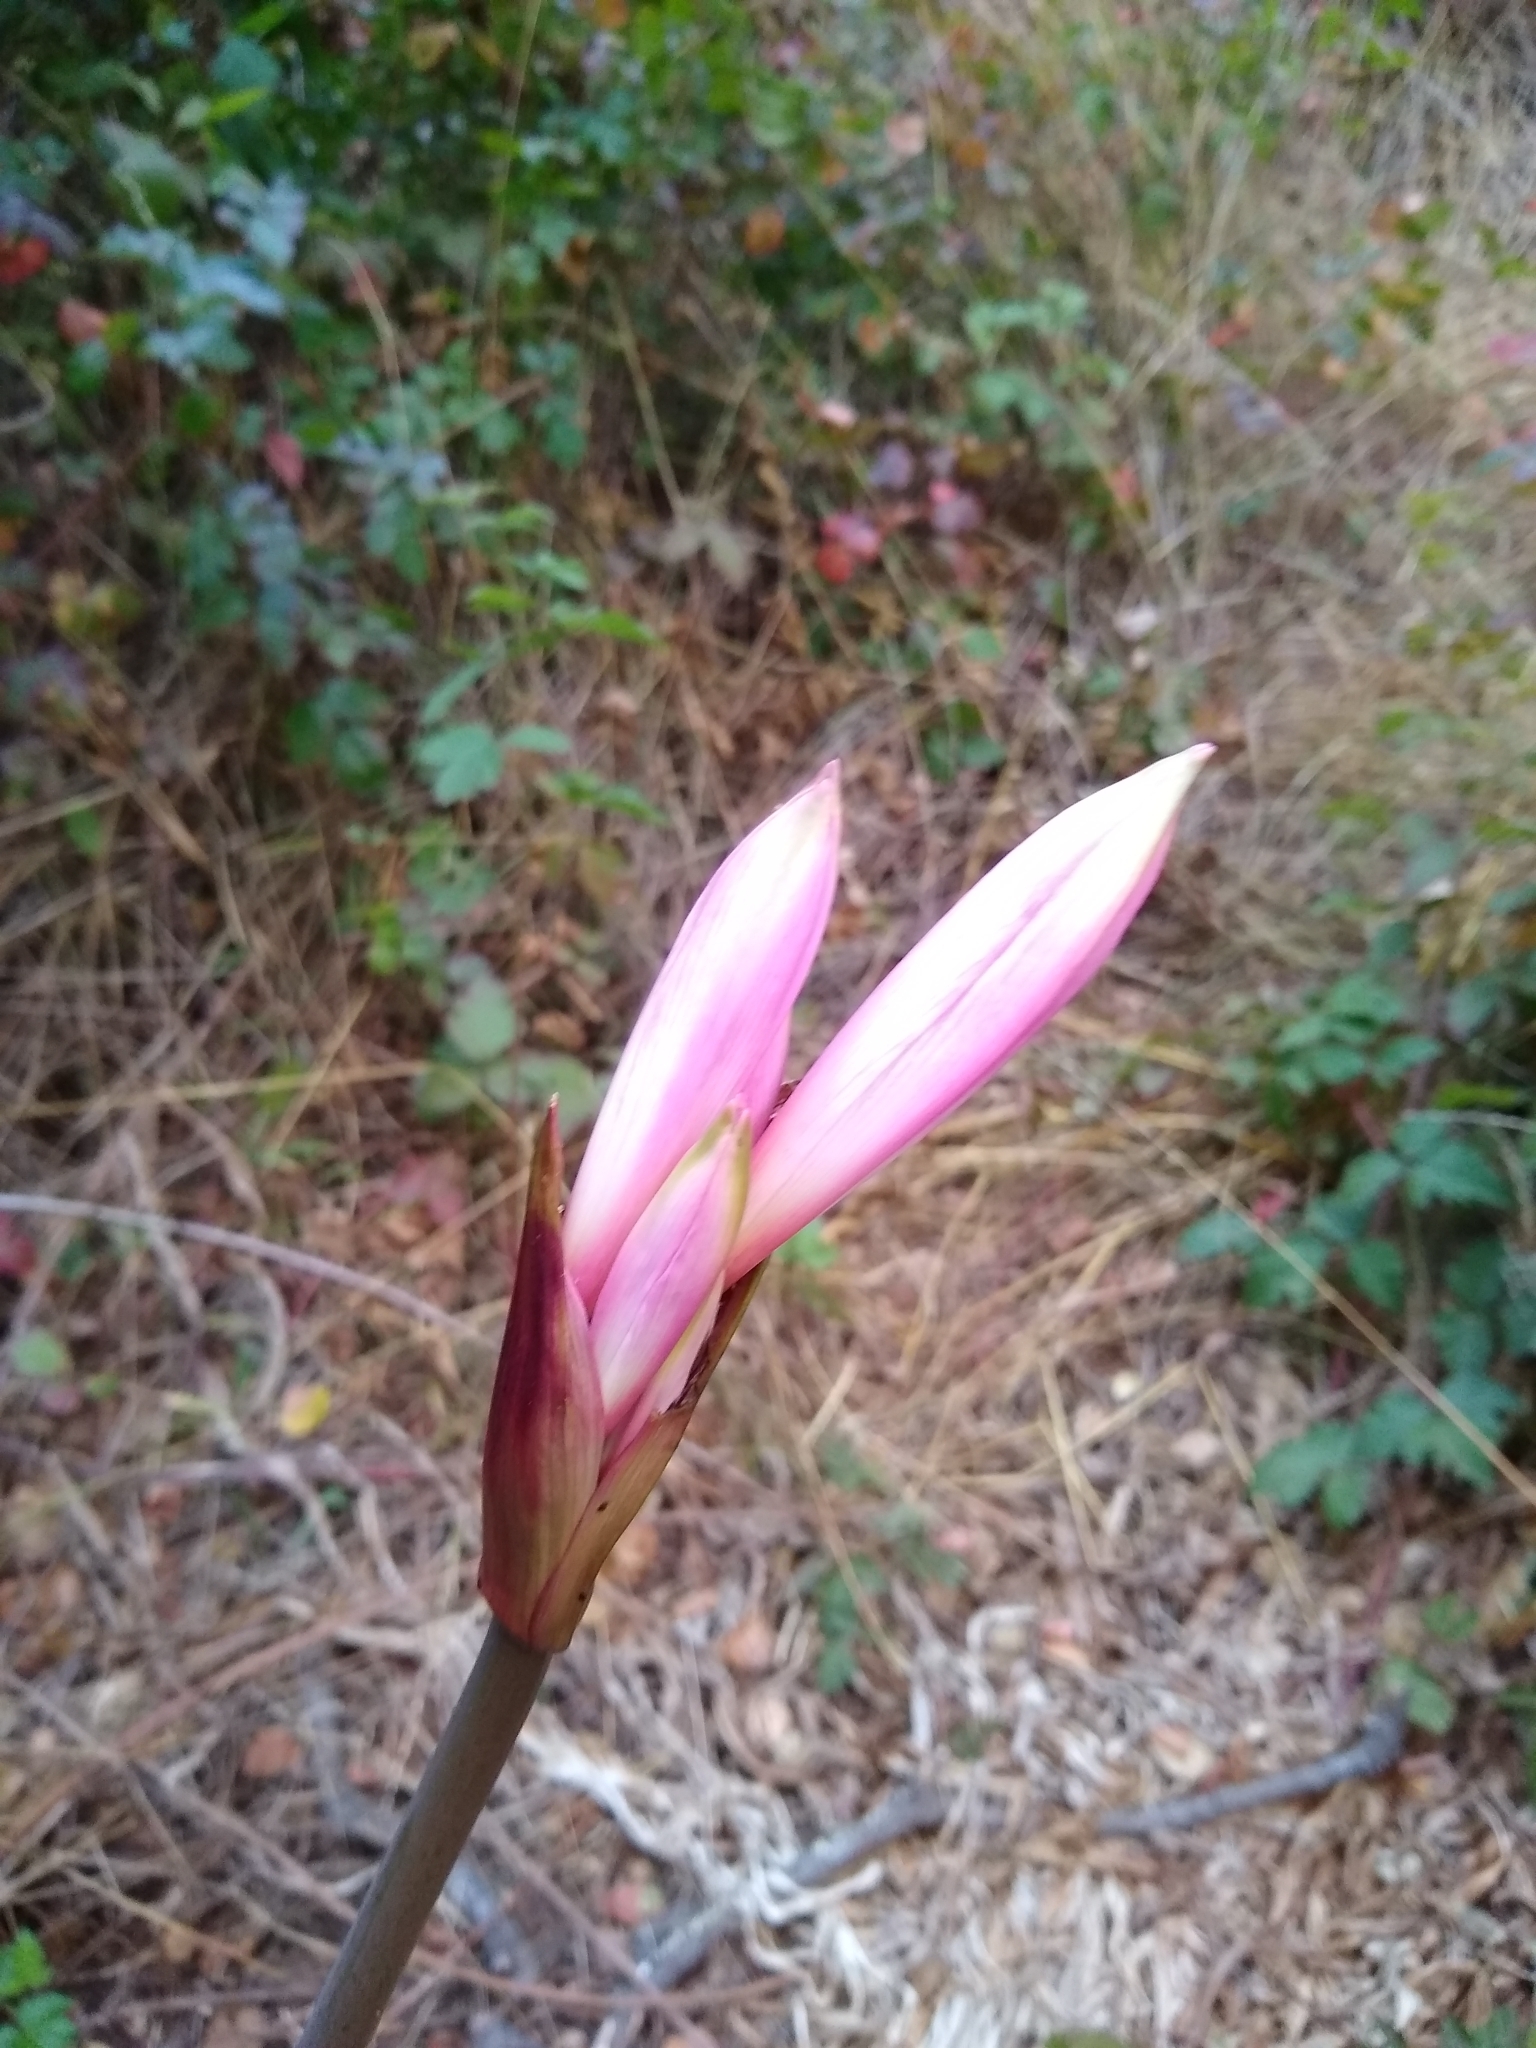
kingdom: Plantae
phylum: Tracheophyta
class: Liliopsida
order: Asparagales
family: Amaryllidaceae
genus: Amaryllis
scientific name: Amaryllis belladonna
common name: Jersey lily
